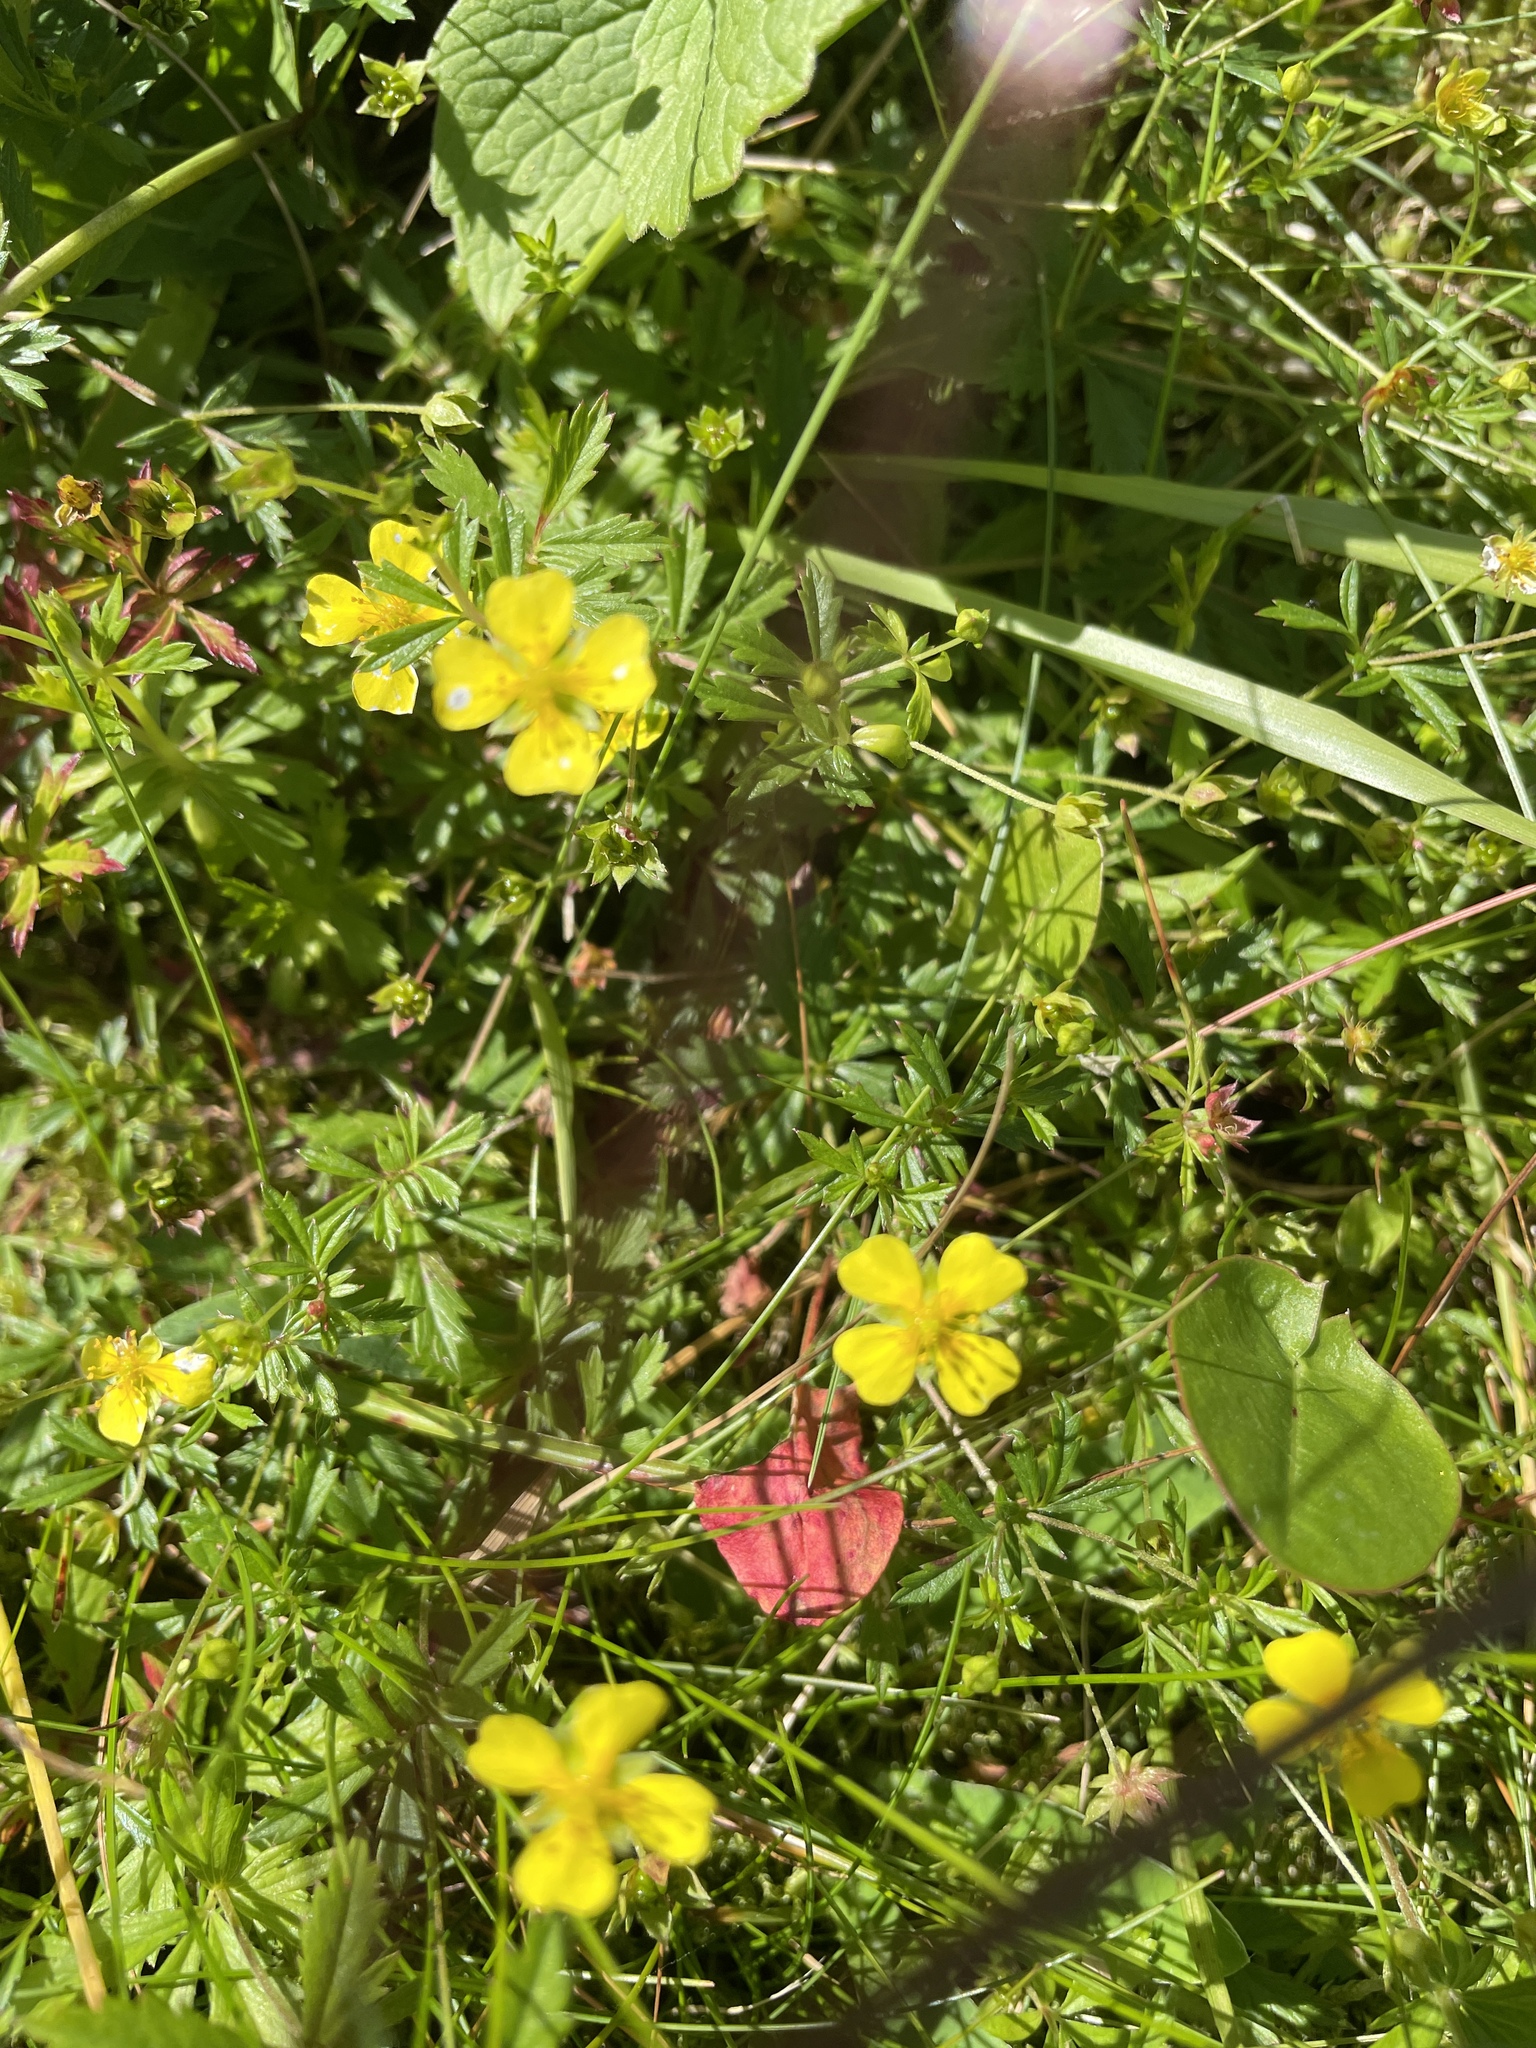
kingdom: Plantae
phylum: Tracheophyta
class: Magnoliopsida
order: Rosales
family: Rosaceae
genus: Potentilla
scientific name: Potentilla erecta
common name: Tormentil
